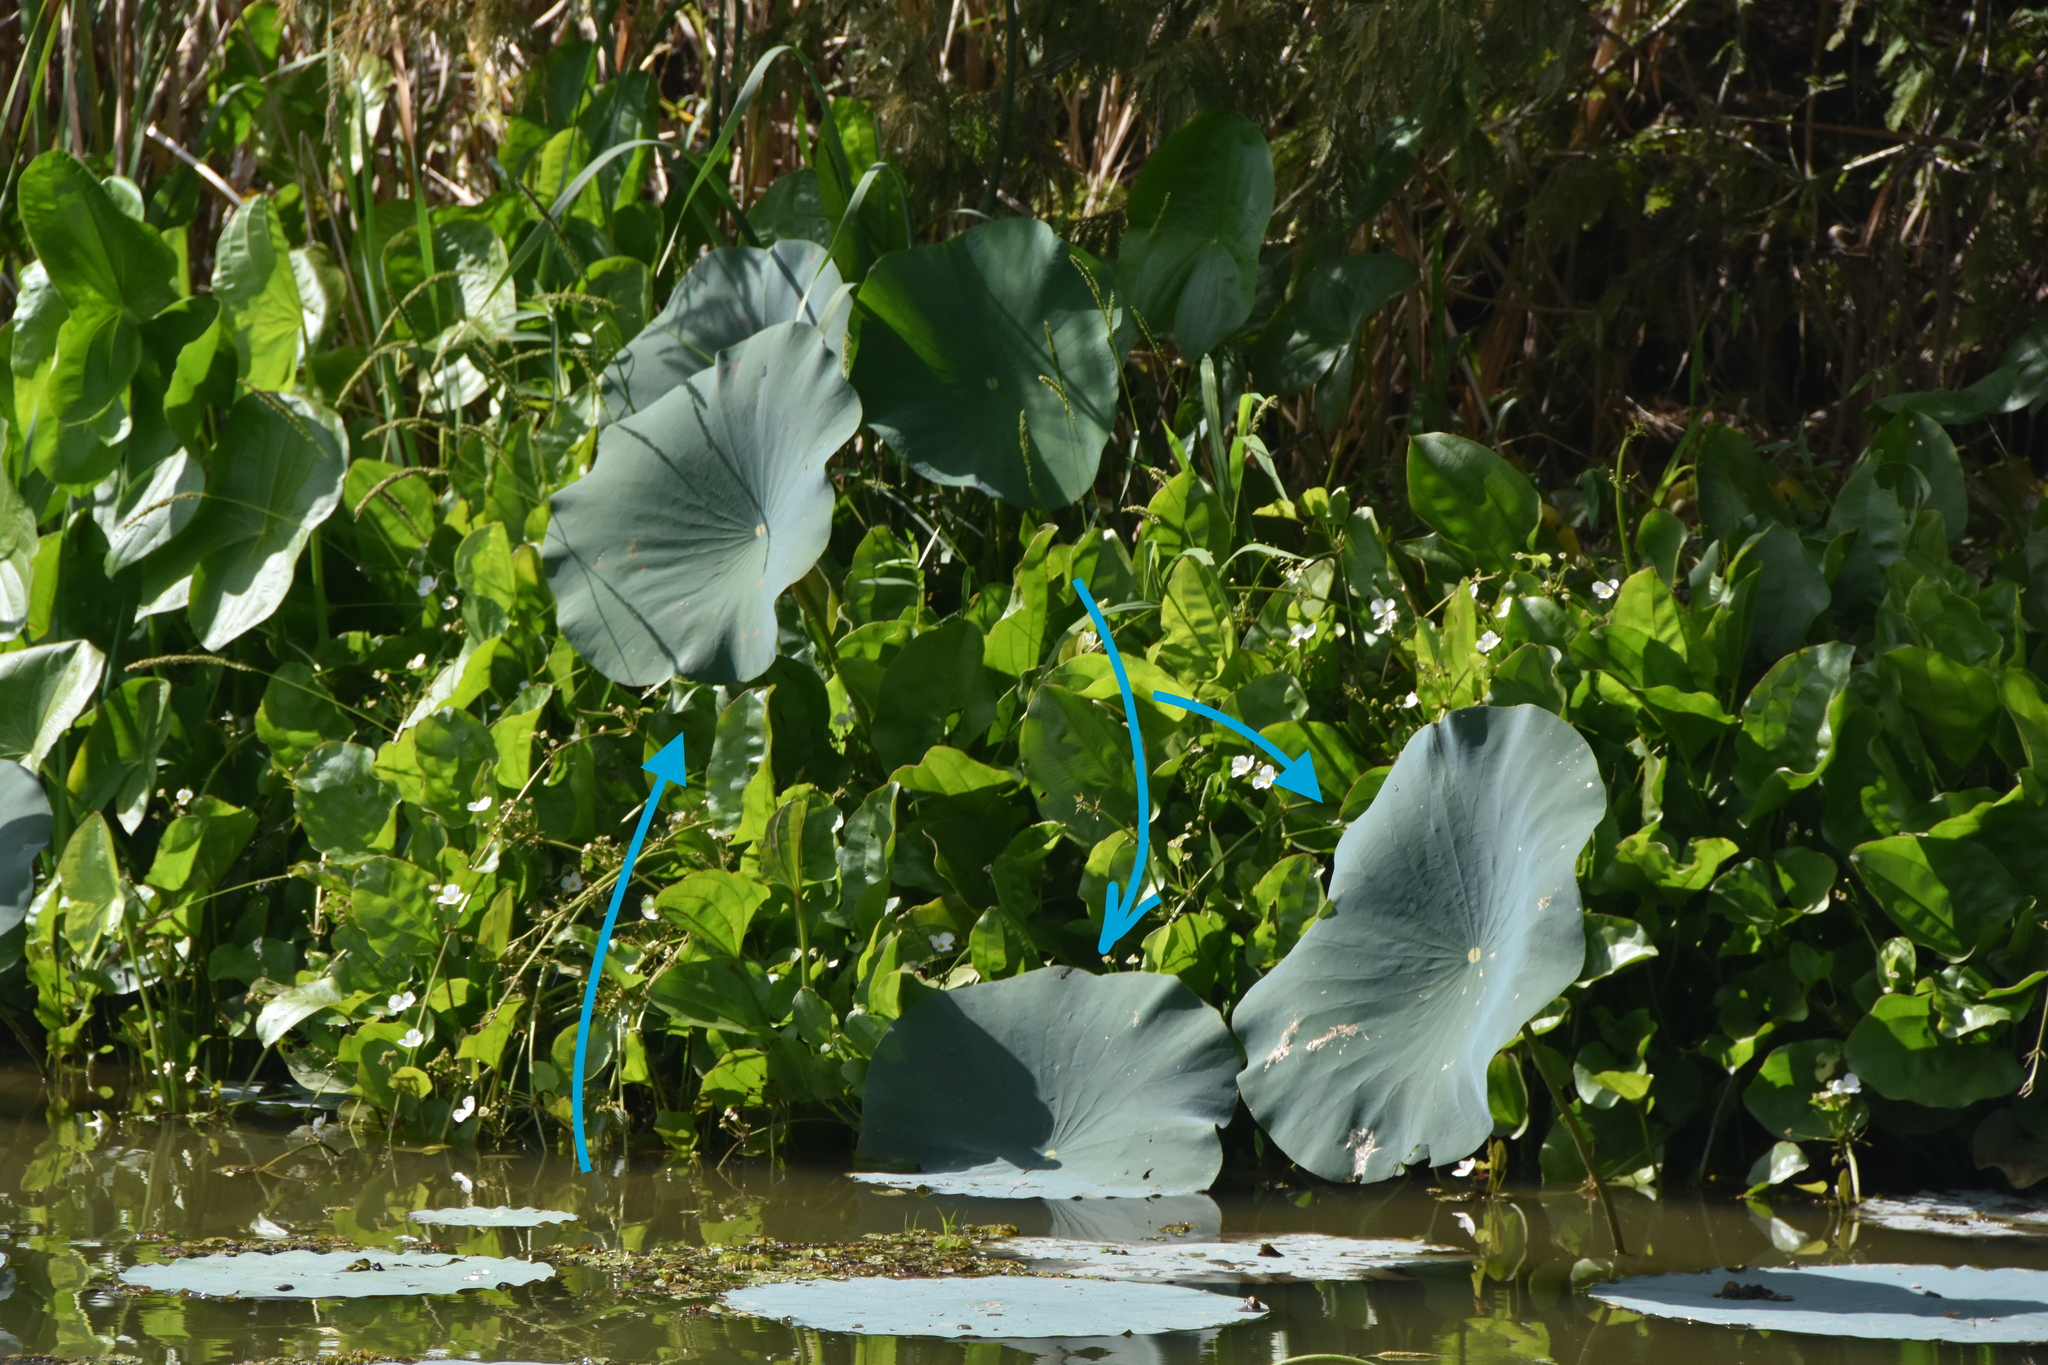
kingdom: Plantae
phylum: Tracheophyta
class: Magnoliopsida
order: Proteales
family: Nelumbonaceae
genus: Nelumbo
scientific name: Nelumbo lutea
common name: American lotus
